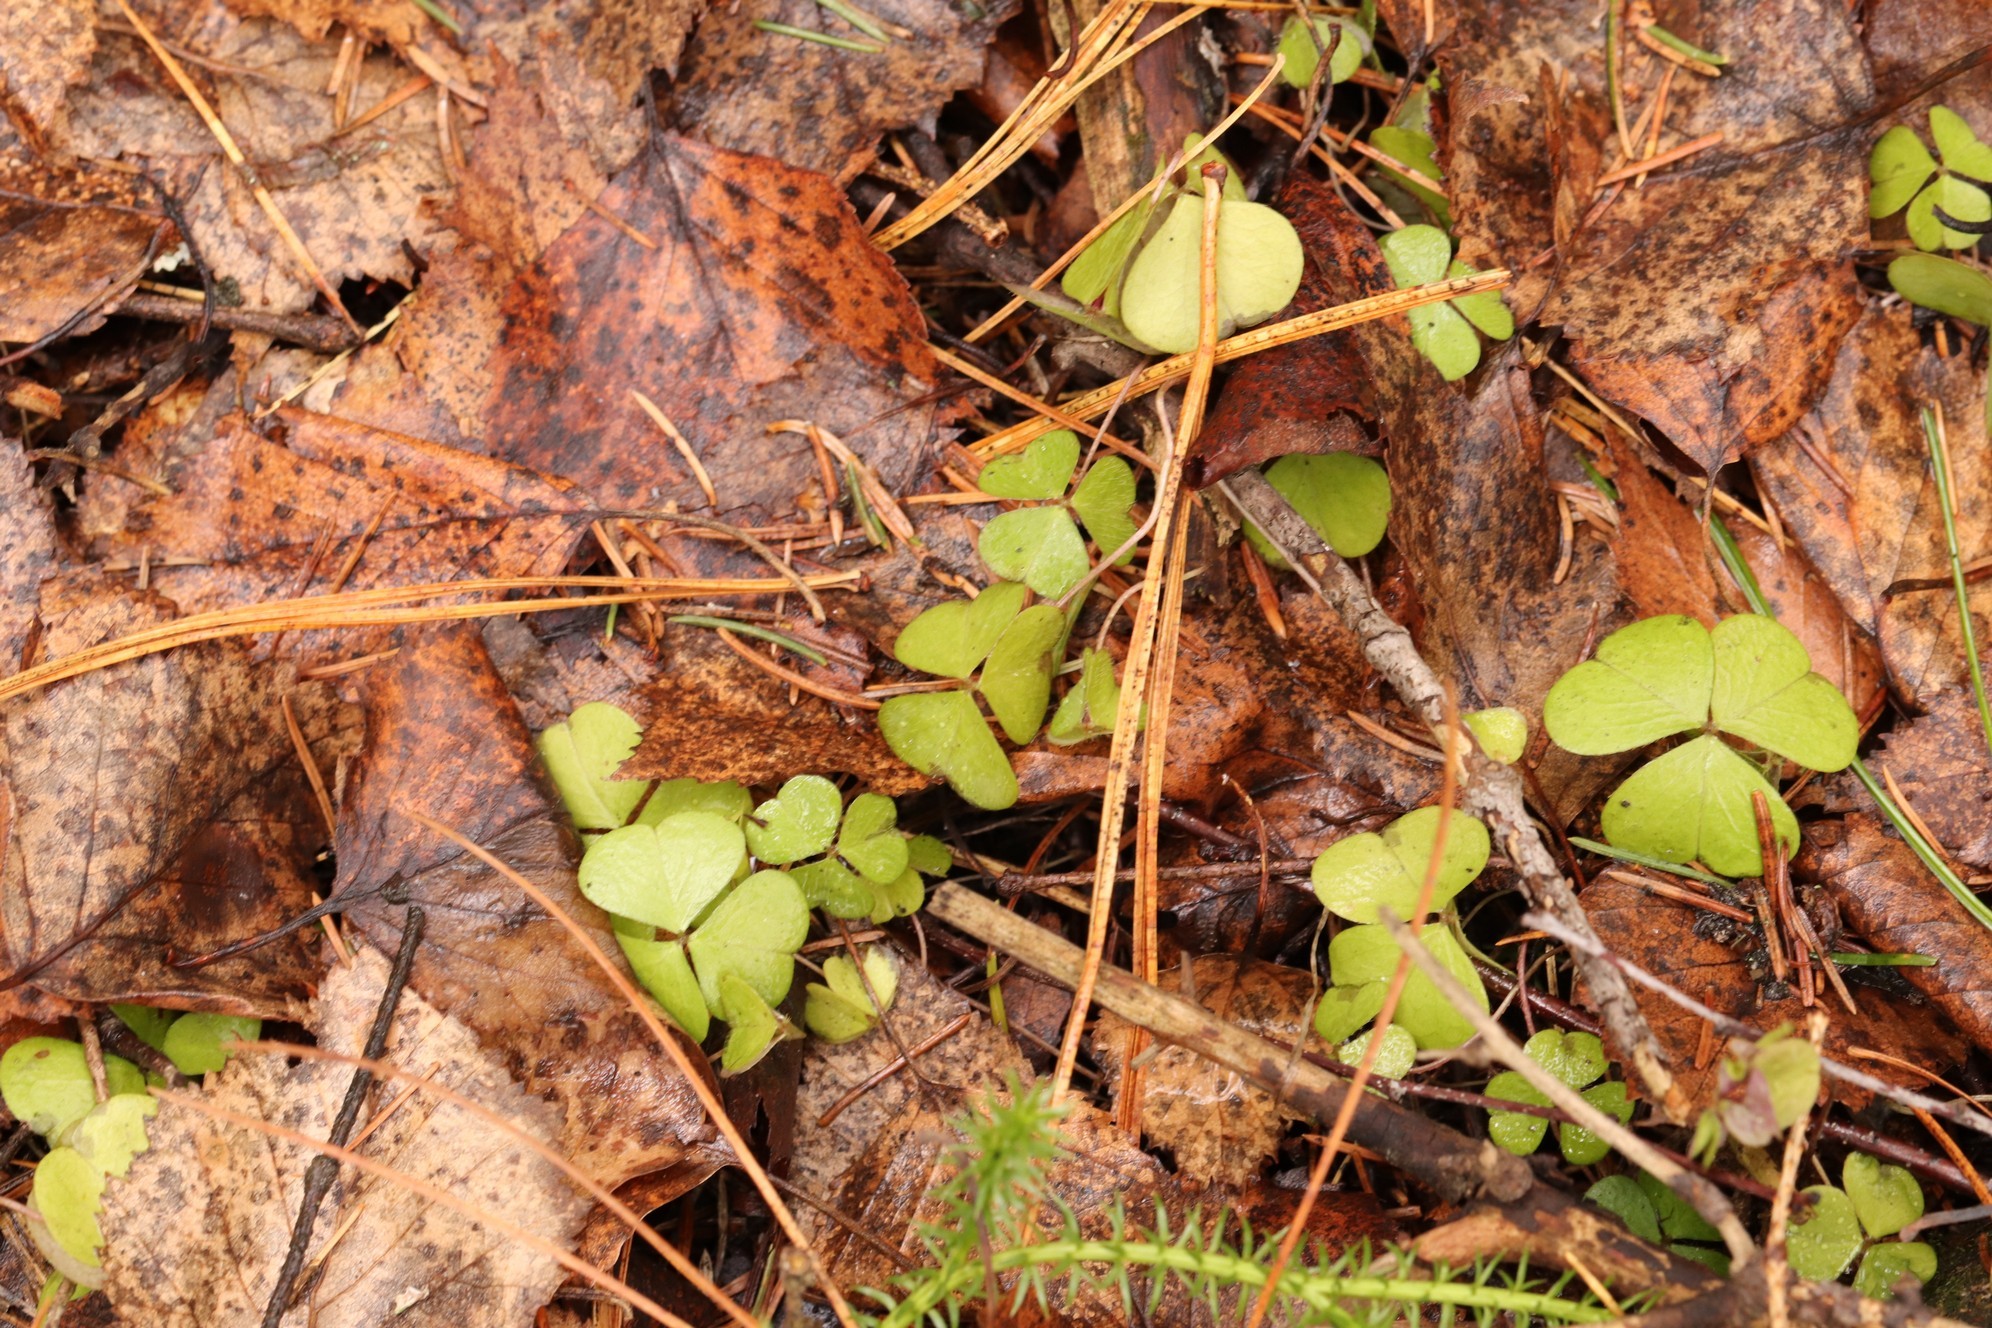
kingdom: Plantae
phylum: Tracheophyta
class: Magnoliopsida
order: Oxalidales
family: Oxalidaceae
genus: Oxalis
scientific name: Oxalis acetosella
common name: Wood-sorrel
